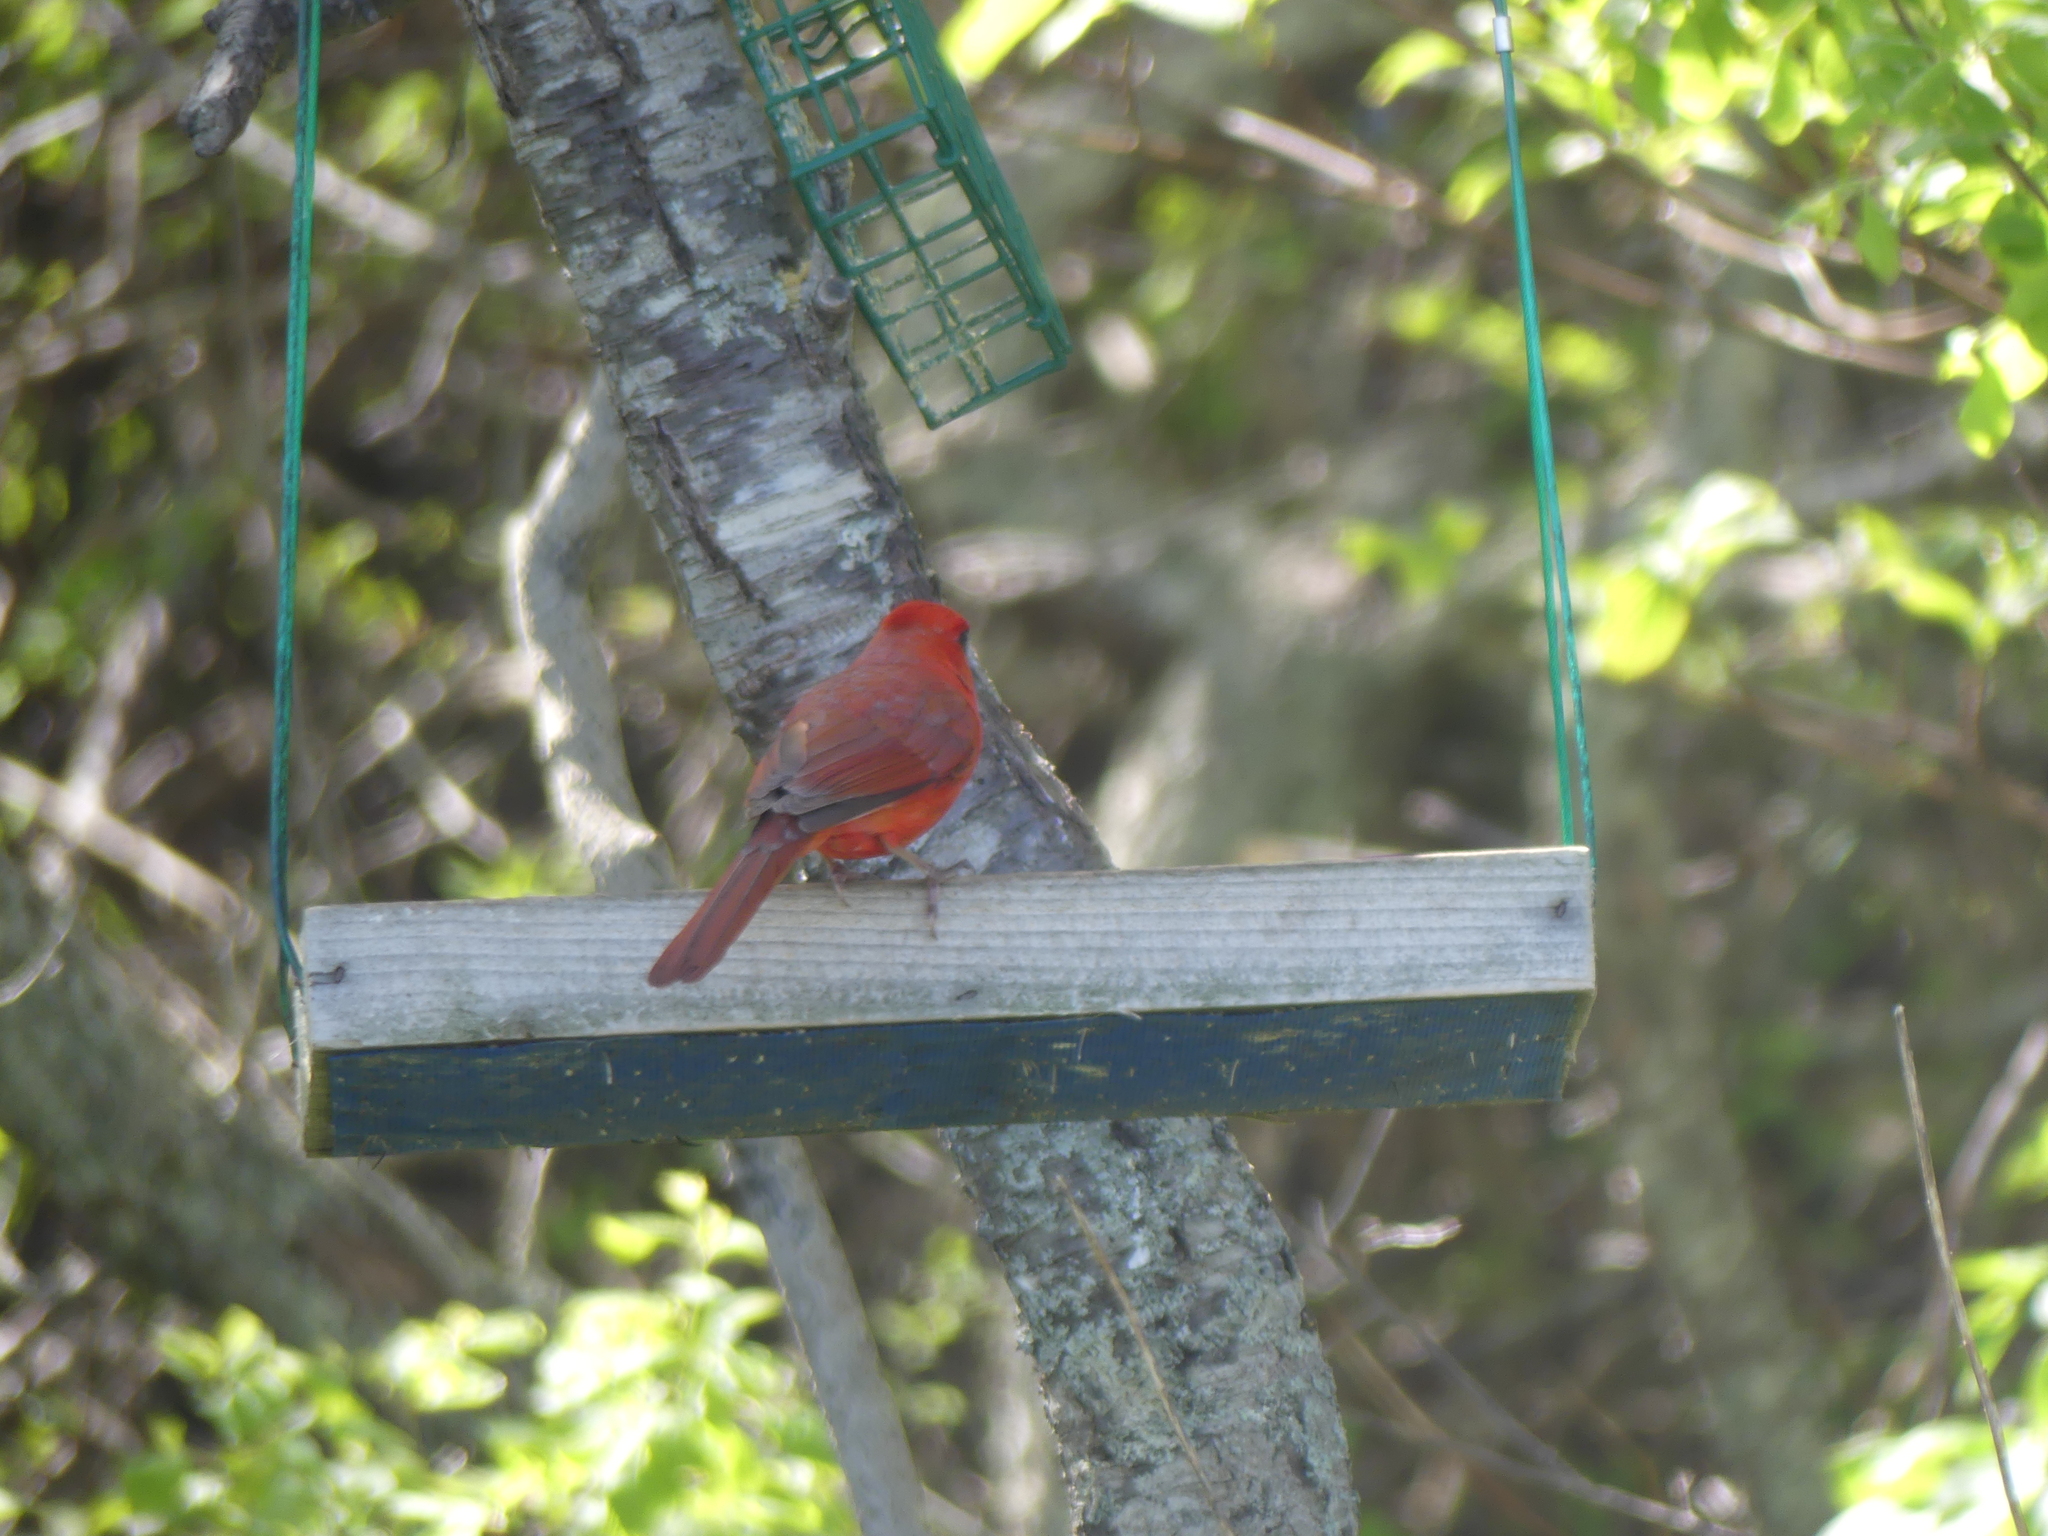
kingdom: Animalia
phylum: Chordata
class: Aves
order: Passeriformes
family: Cardinalidae
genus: Cardinalis
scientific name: Cardinalis cardinalis
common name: Northern cardinal
